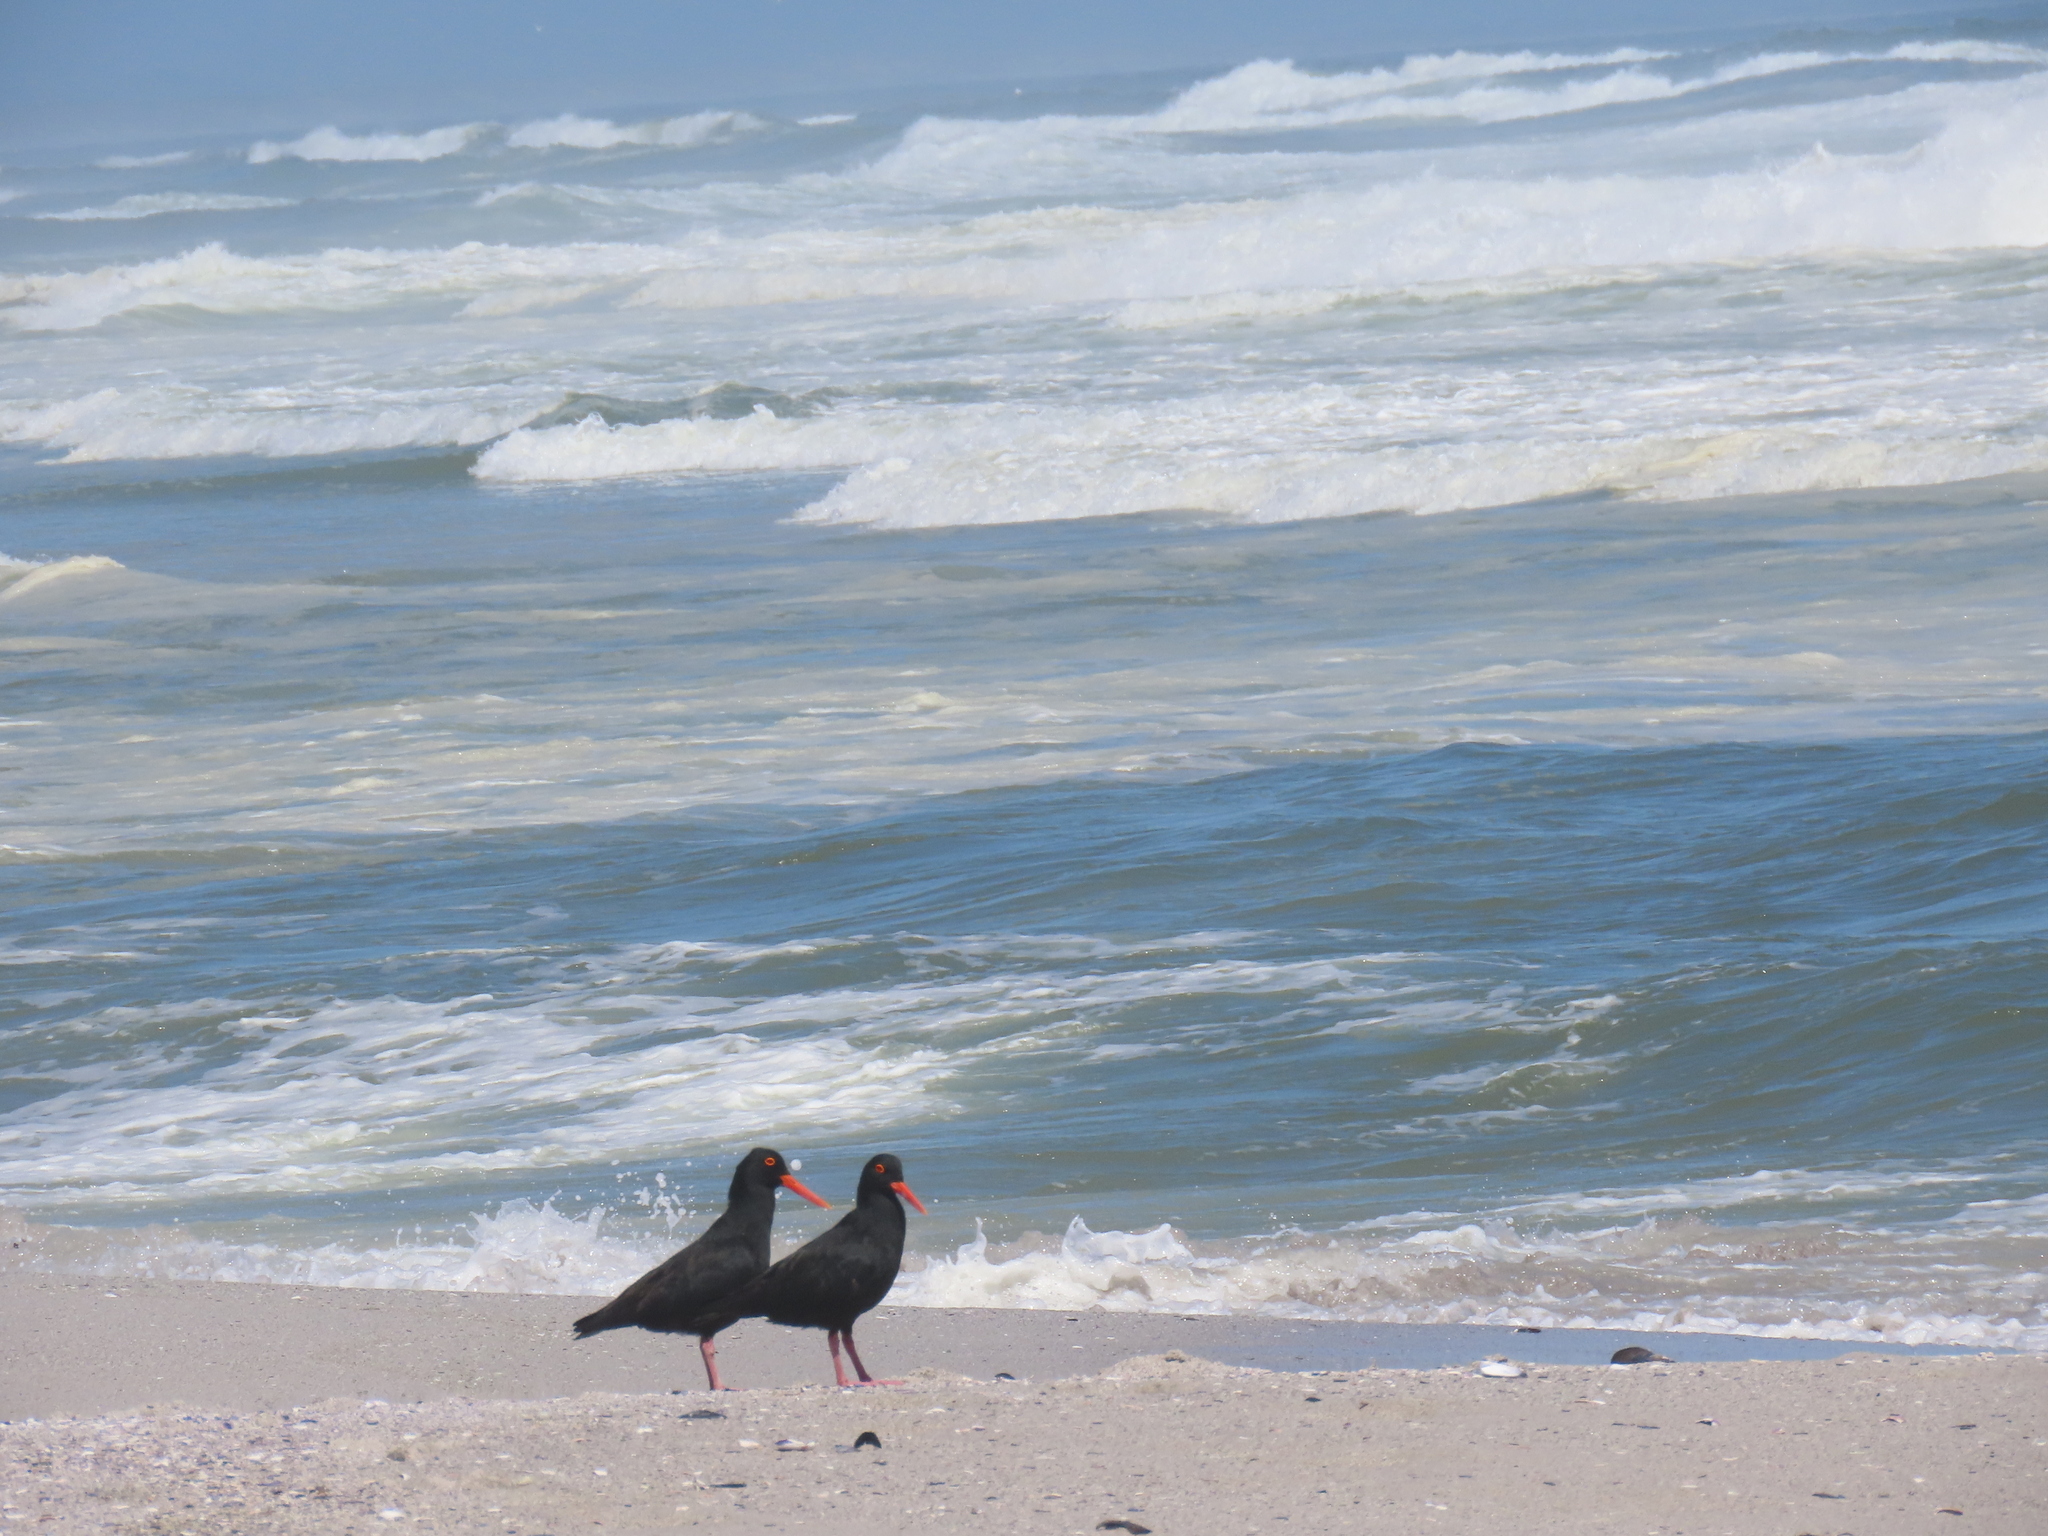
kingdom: Animalia
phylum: Chordata
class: Aves
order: Charadriiformes
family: Haematopodidae
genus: Haematopus
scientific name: Haematopus moquini
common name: African oystercatcher
